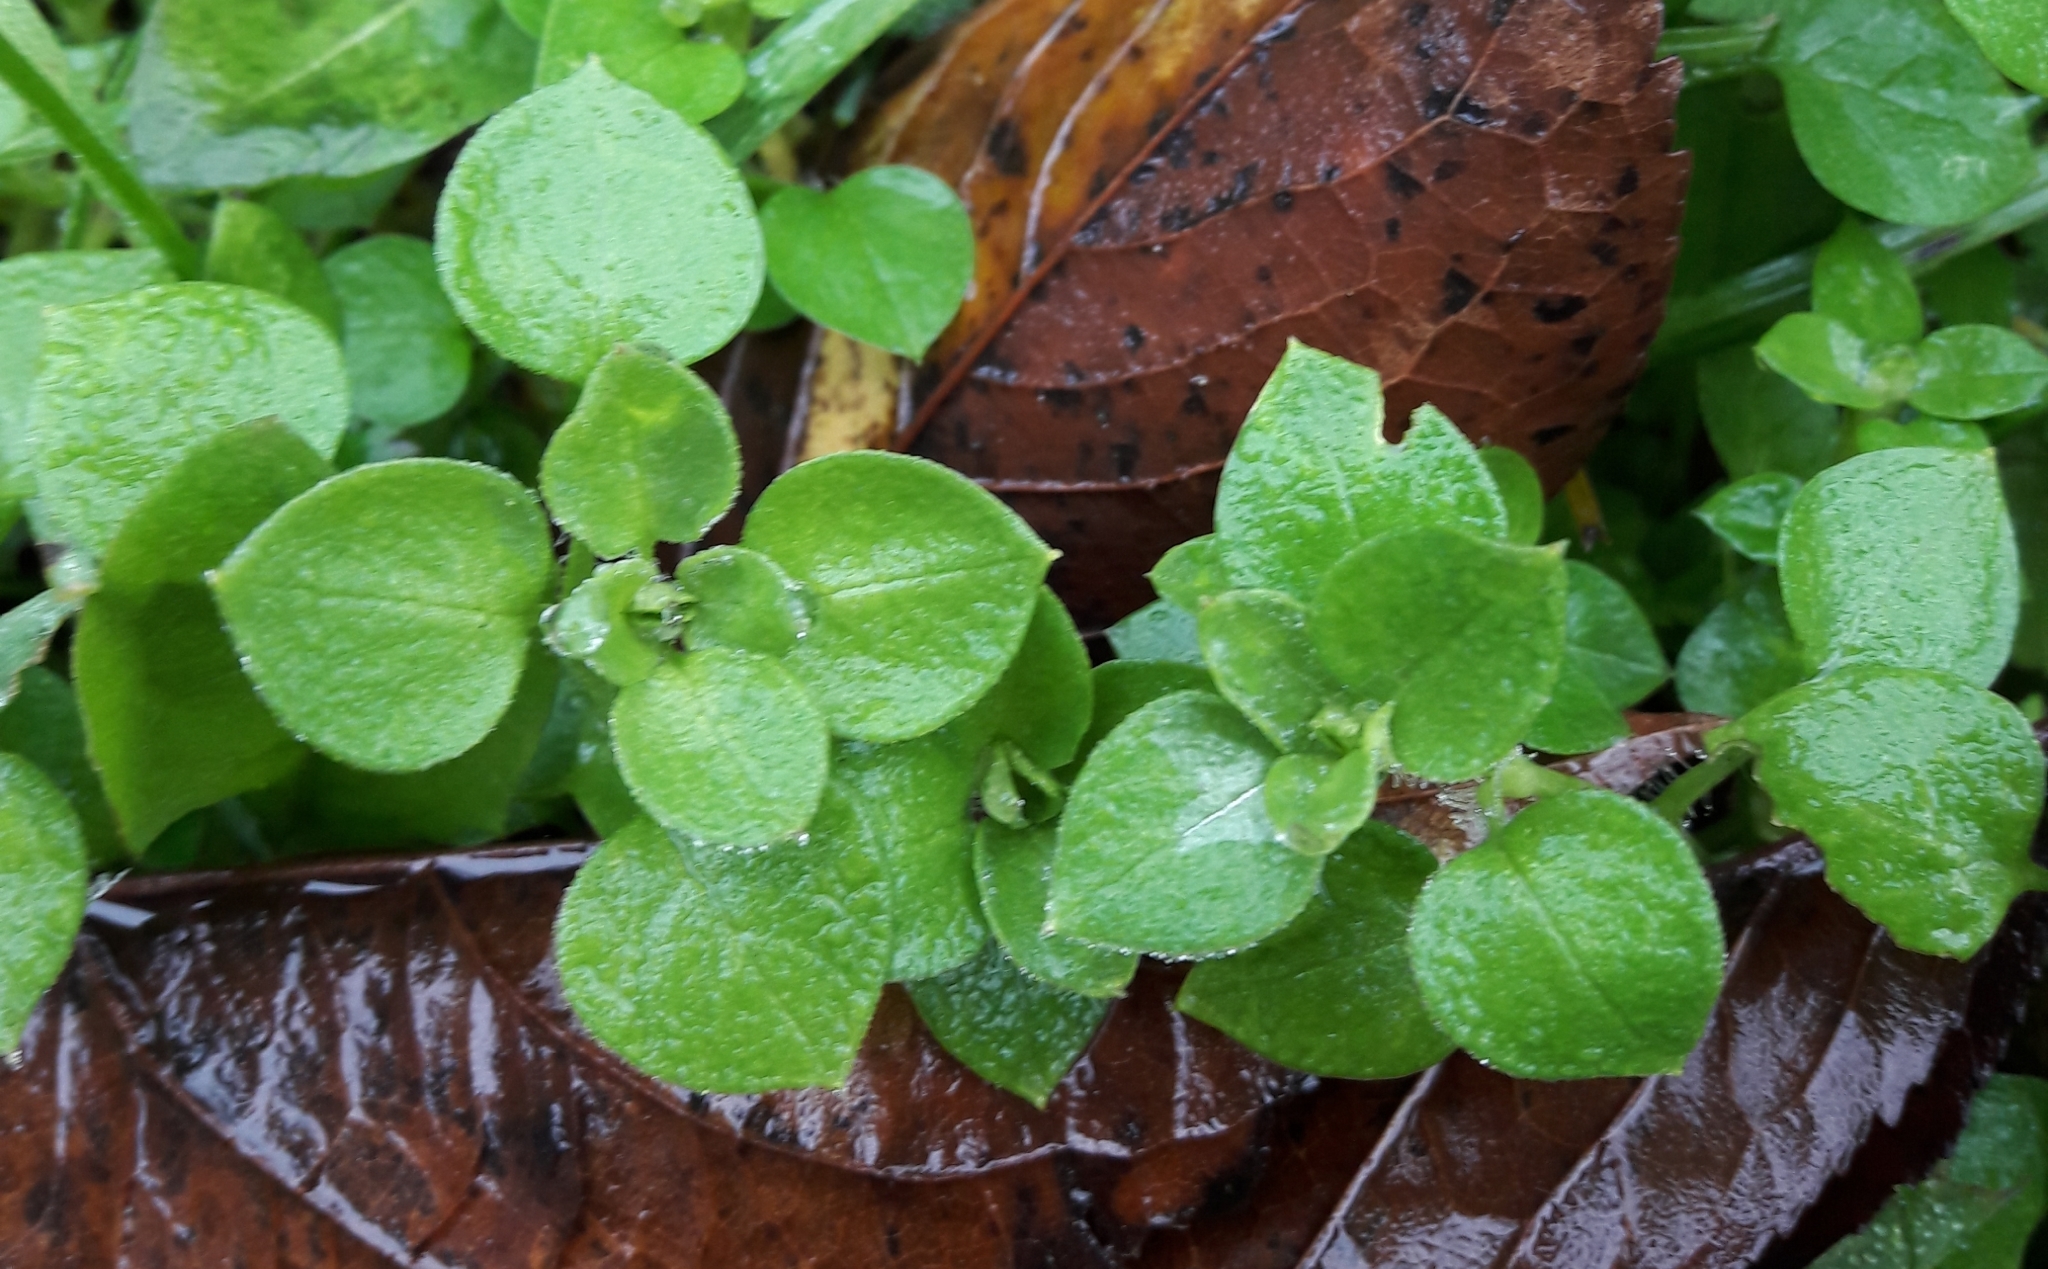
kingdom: Plantae
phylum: Tracheophyta
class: Magnoliopsida
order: Caryophyllales
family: Caryophyllaceae
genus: Stellaria
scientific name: Stellaria media
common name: Common chickweed
